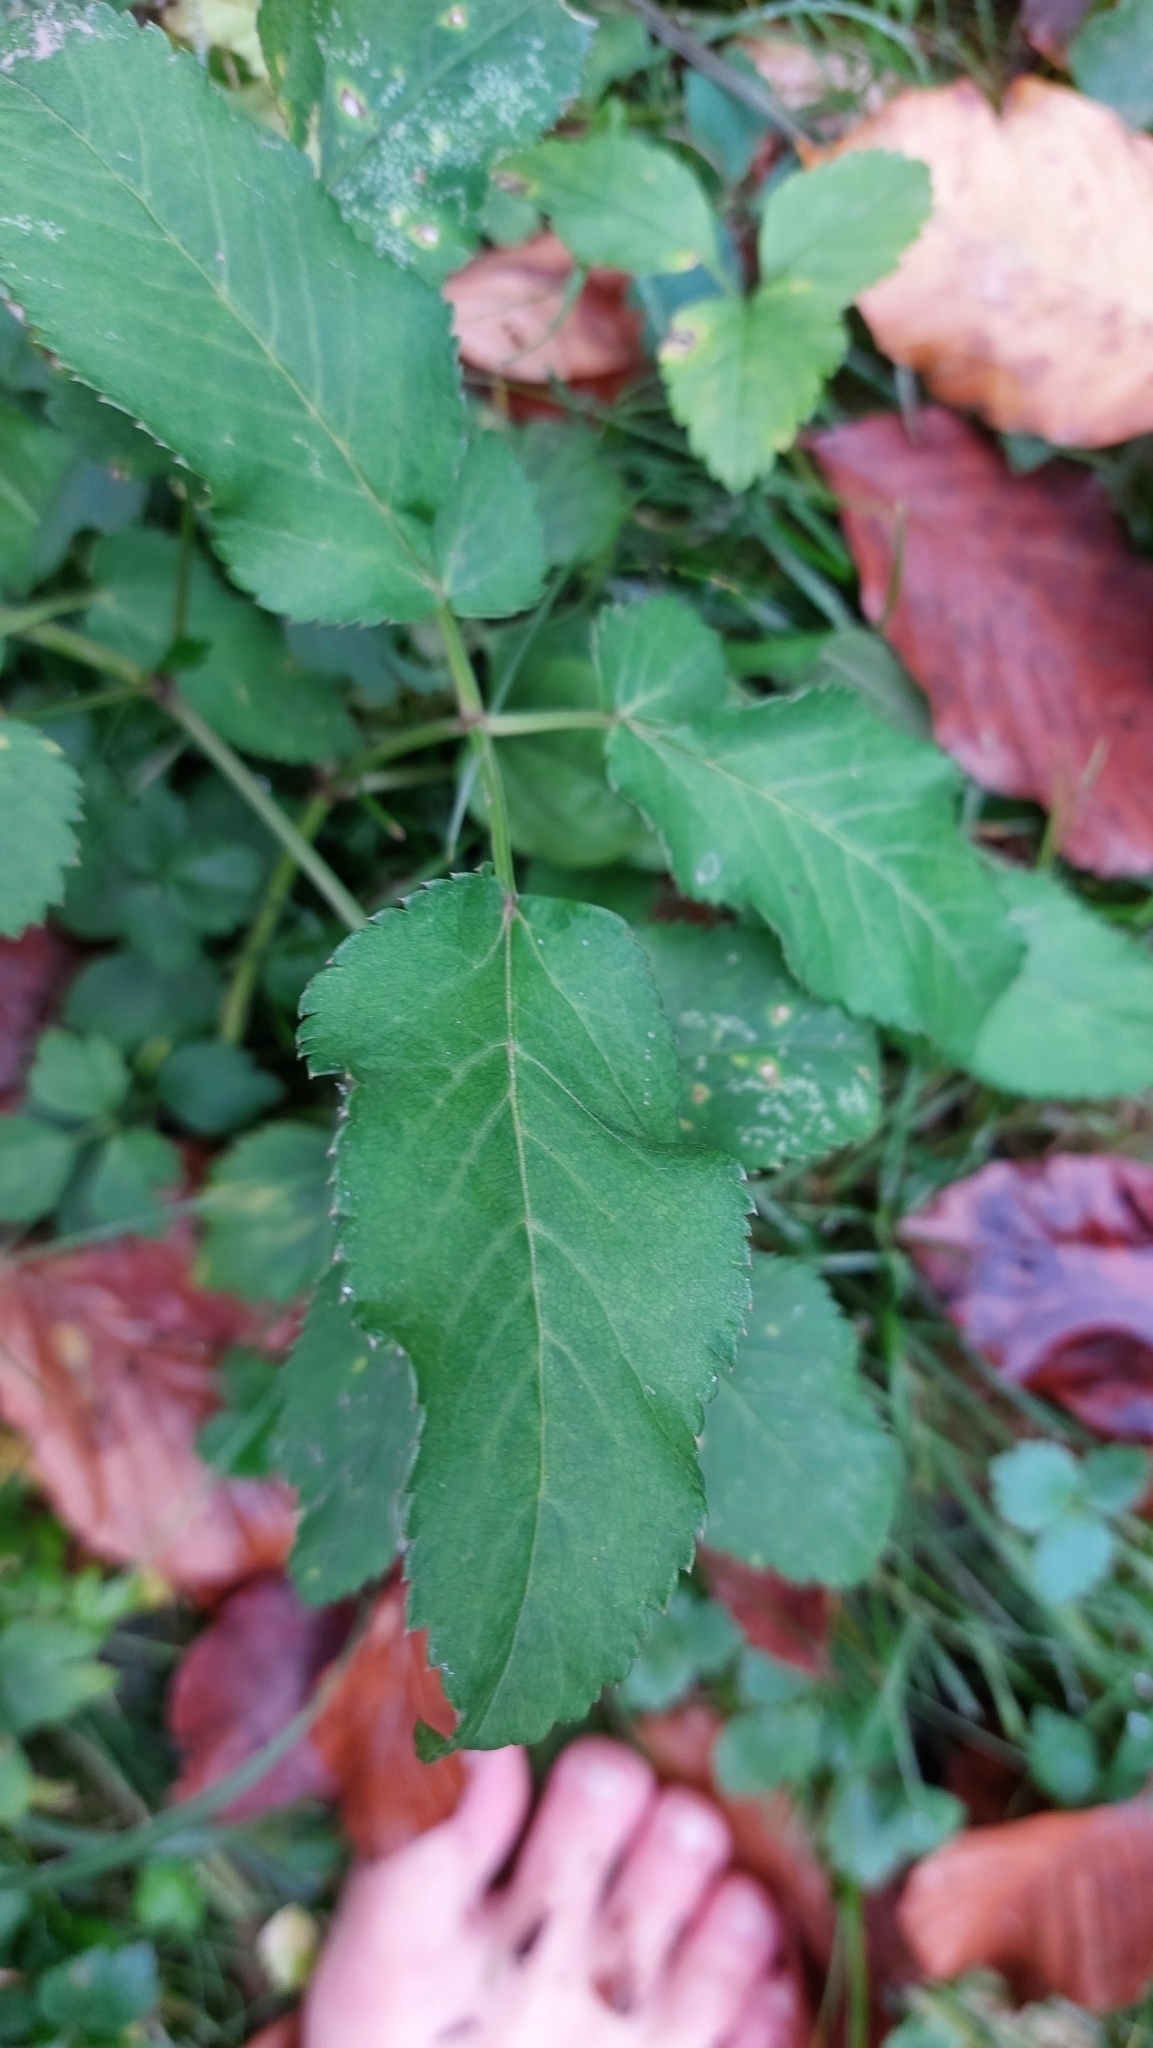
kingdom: Plantae
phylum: Tracheophyta
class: Magnoliopsida
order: Apiales
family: Apiaceae
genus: Aegopodium
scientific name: Aegopodium podagraria
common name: Ground-elder
